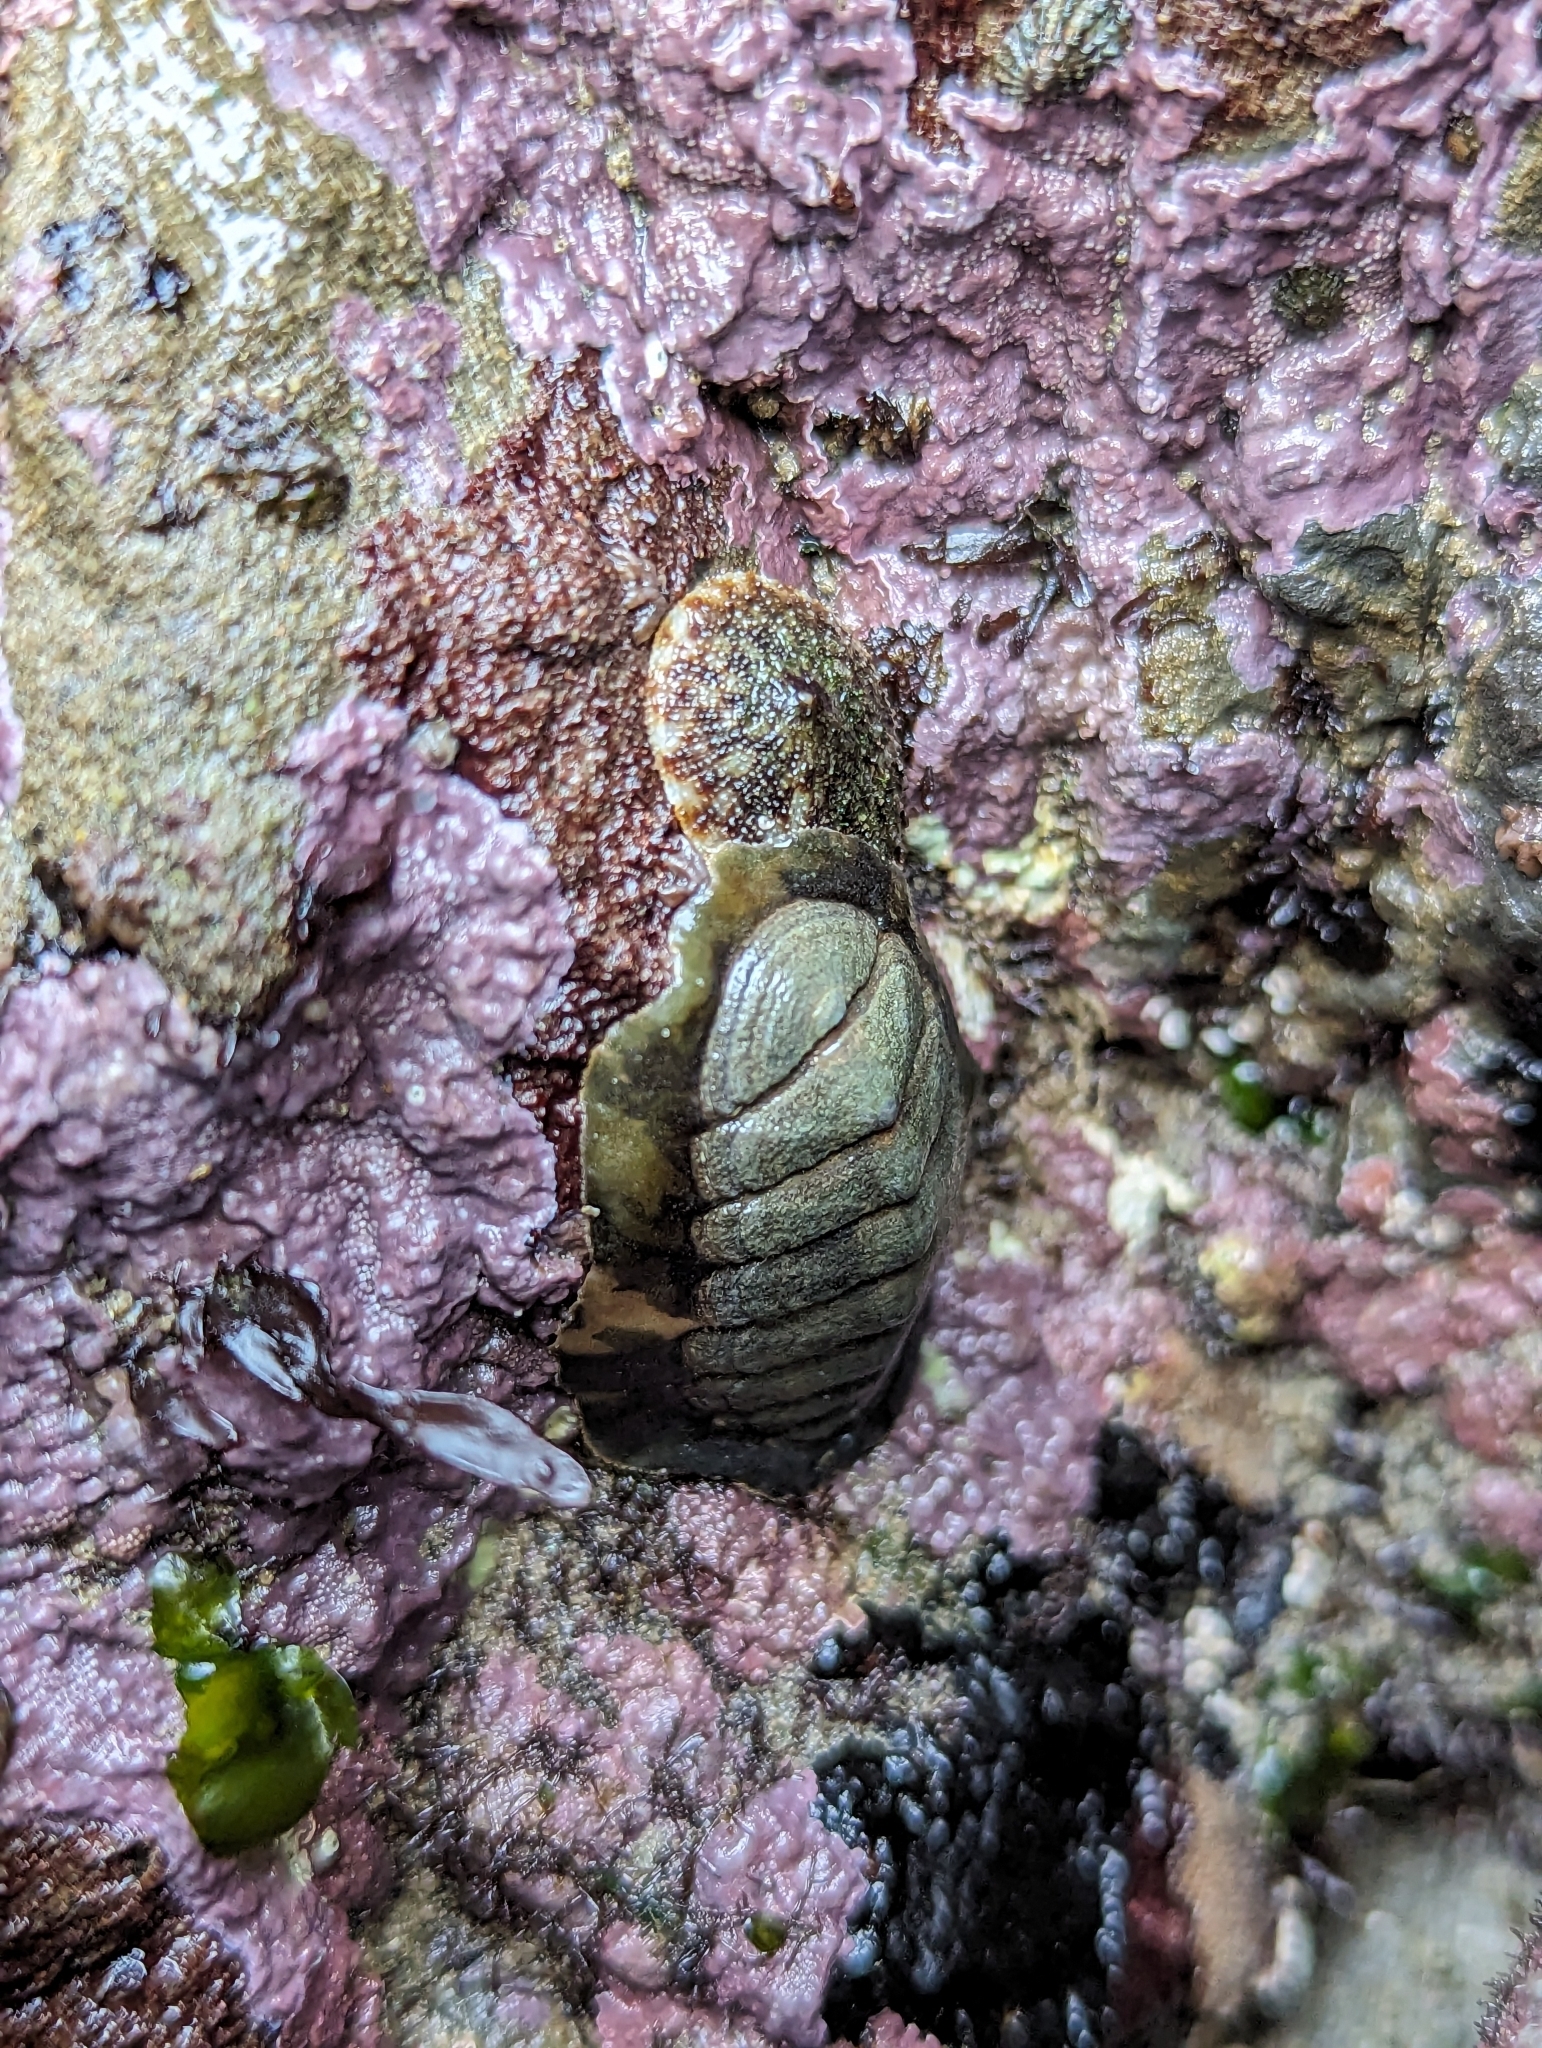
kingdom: Animalia
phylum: Mollusca
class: Polyplacophora
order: Chitonida
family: Tonicellidae
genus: Cyanoplax
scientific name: Cyanoplax hartwegii
